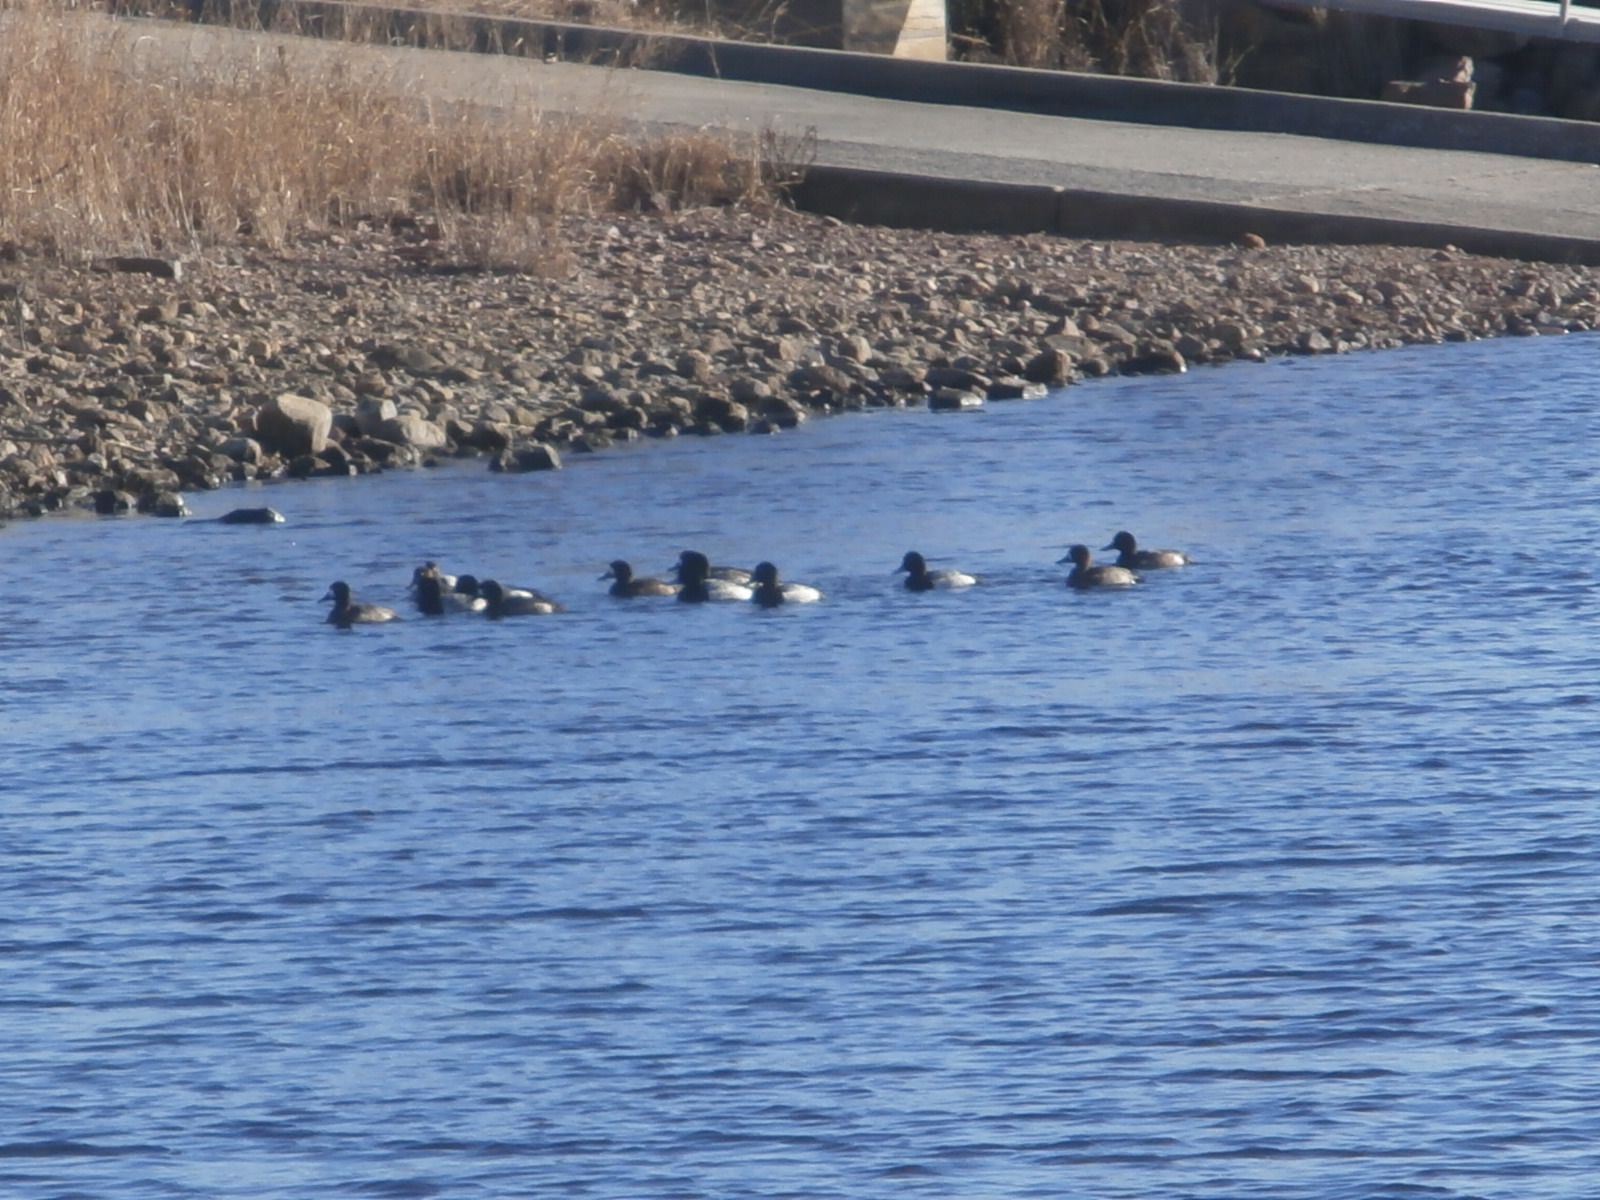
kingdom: Animalia
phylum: Chordata
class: Aves
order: Anseriformes
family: Anatidae
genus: Aythya
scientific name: Aythya affinis
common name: Lesser scaup
